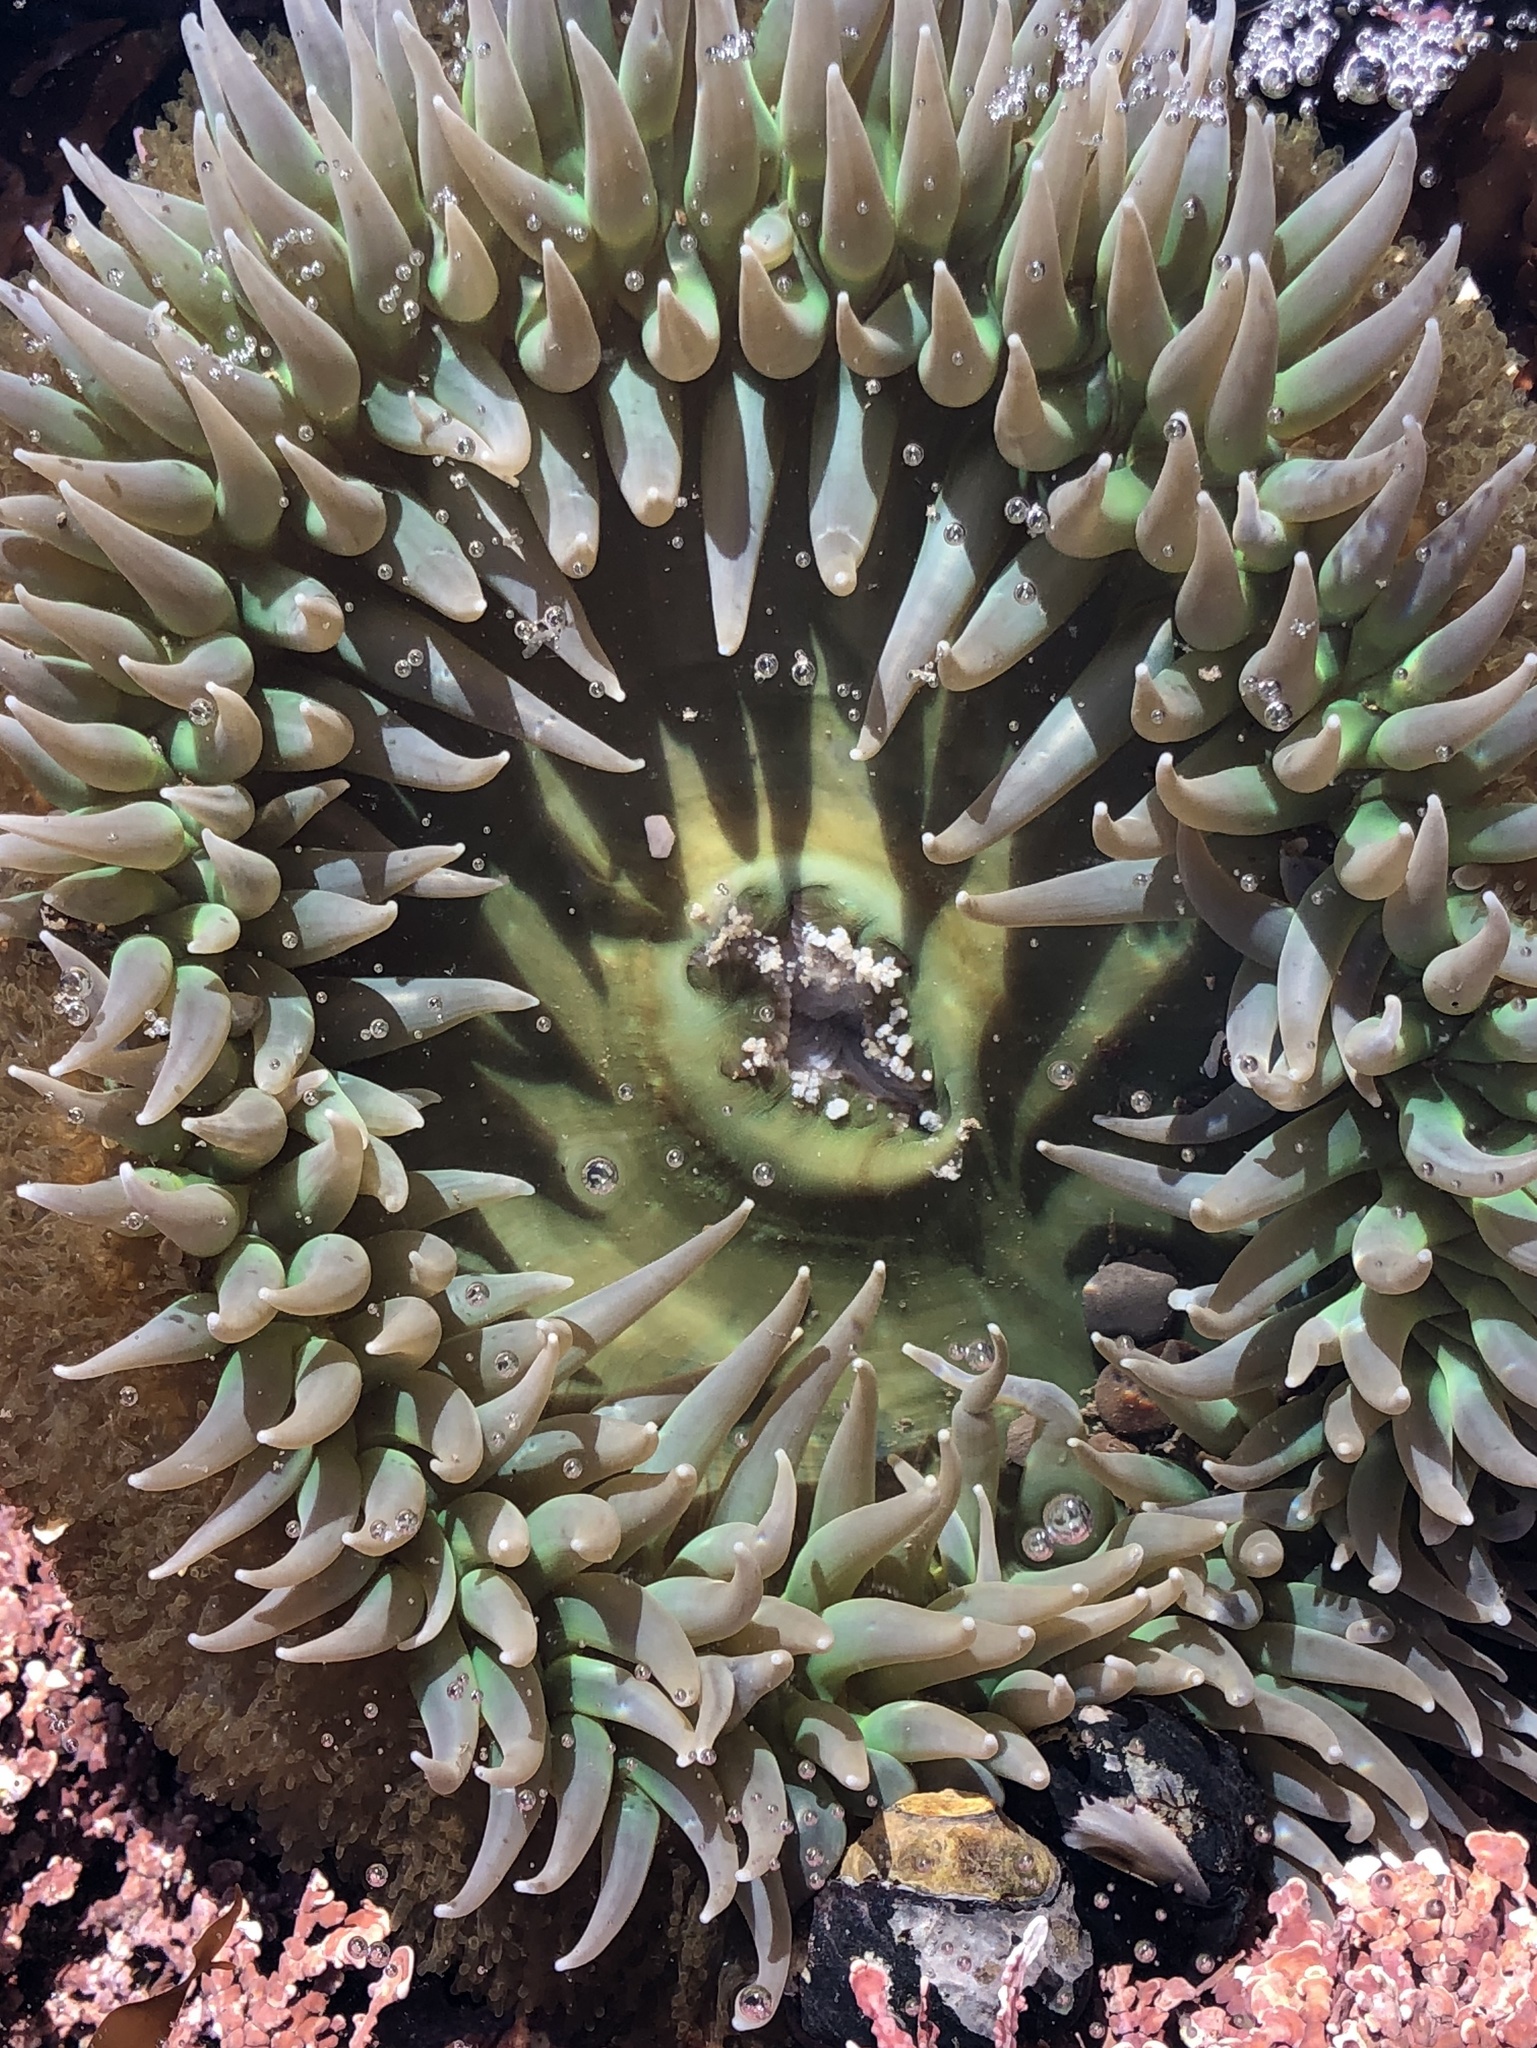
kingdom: Animalia
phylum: Cnidaria
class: Anthozoa
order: Actiniaria
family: Actiniidae
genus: Anthopleura
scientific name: Anthopleura xanthogrammica
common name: Giant green anemone
